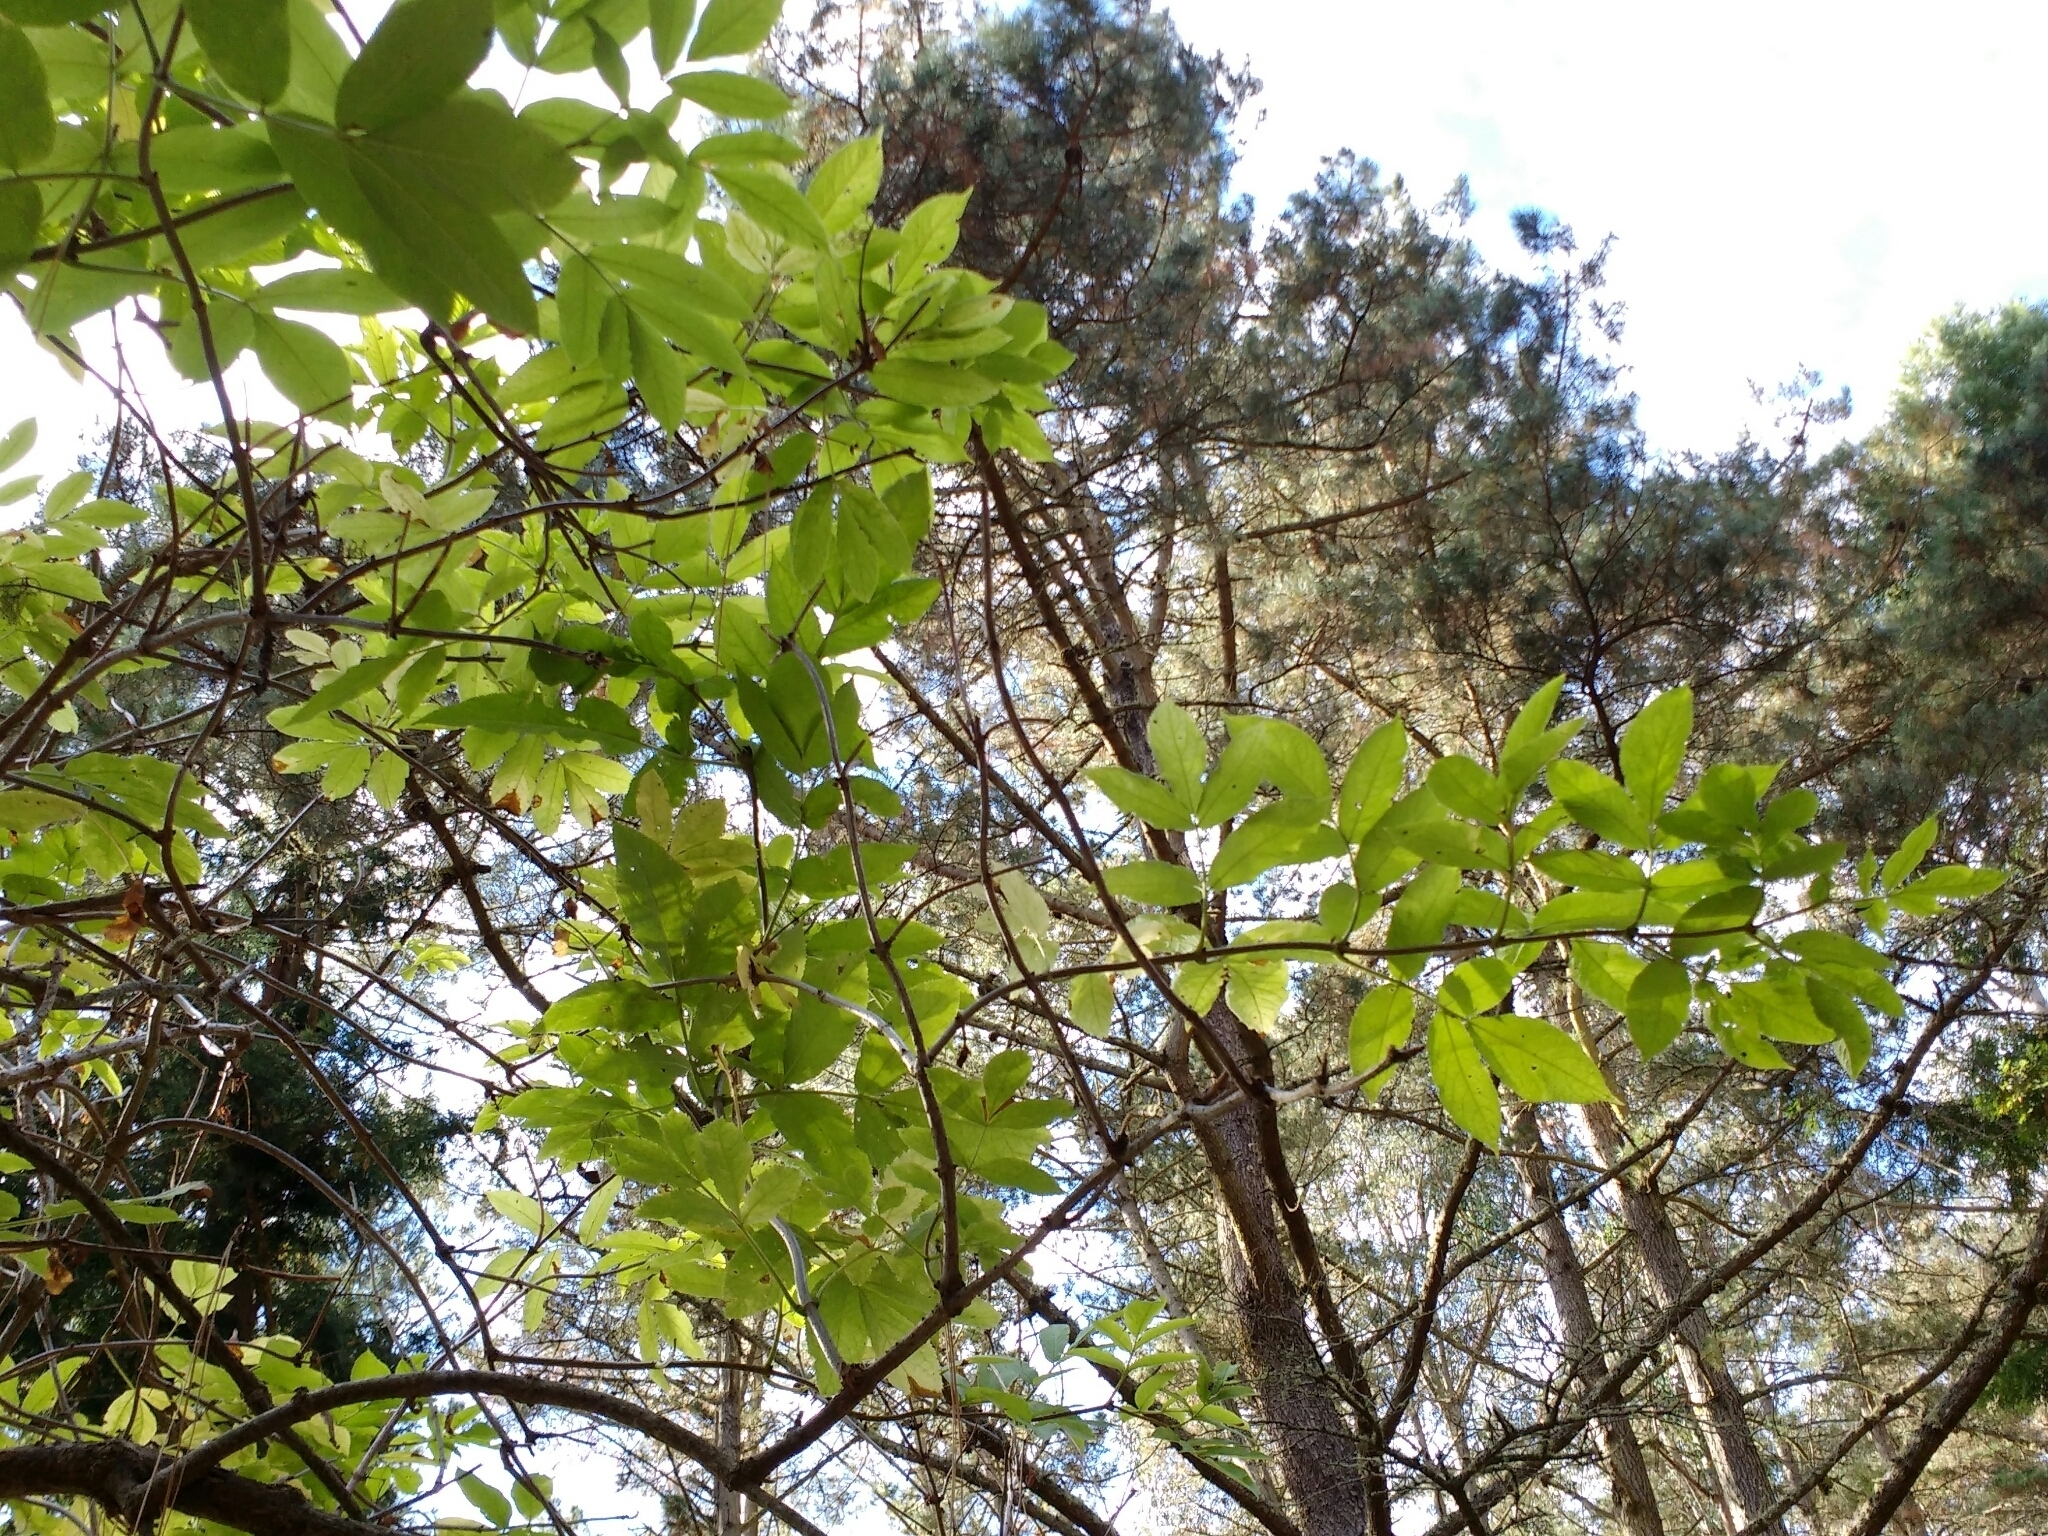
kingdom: Plantae
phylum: Tracheophyta
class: Magnoliopsida
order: Dipsacales
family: Viburnaceae
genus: Sambucus
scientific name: Sambucus racemosa
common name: Red-berried elder
